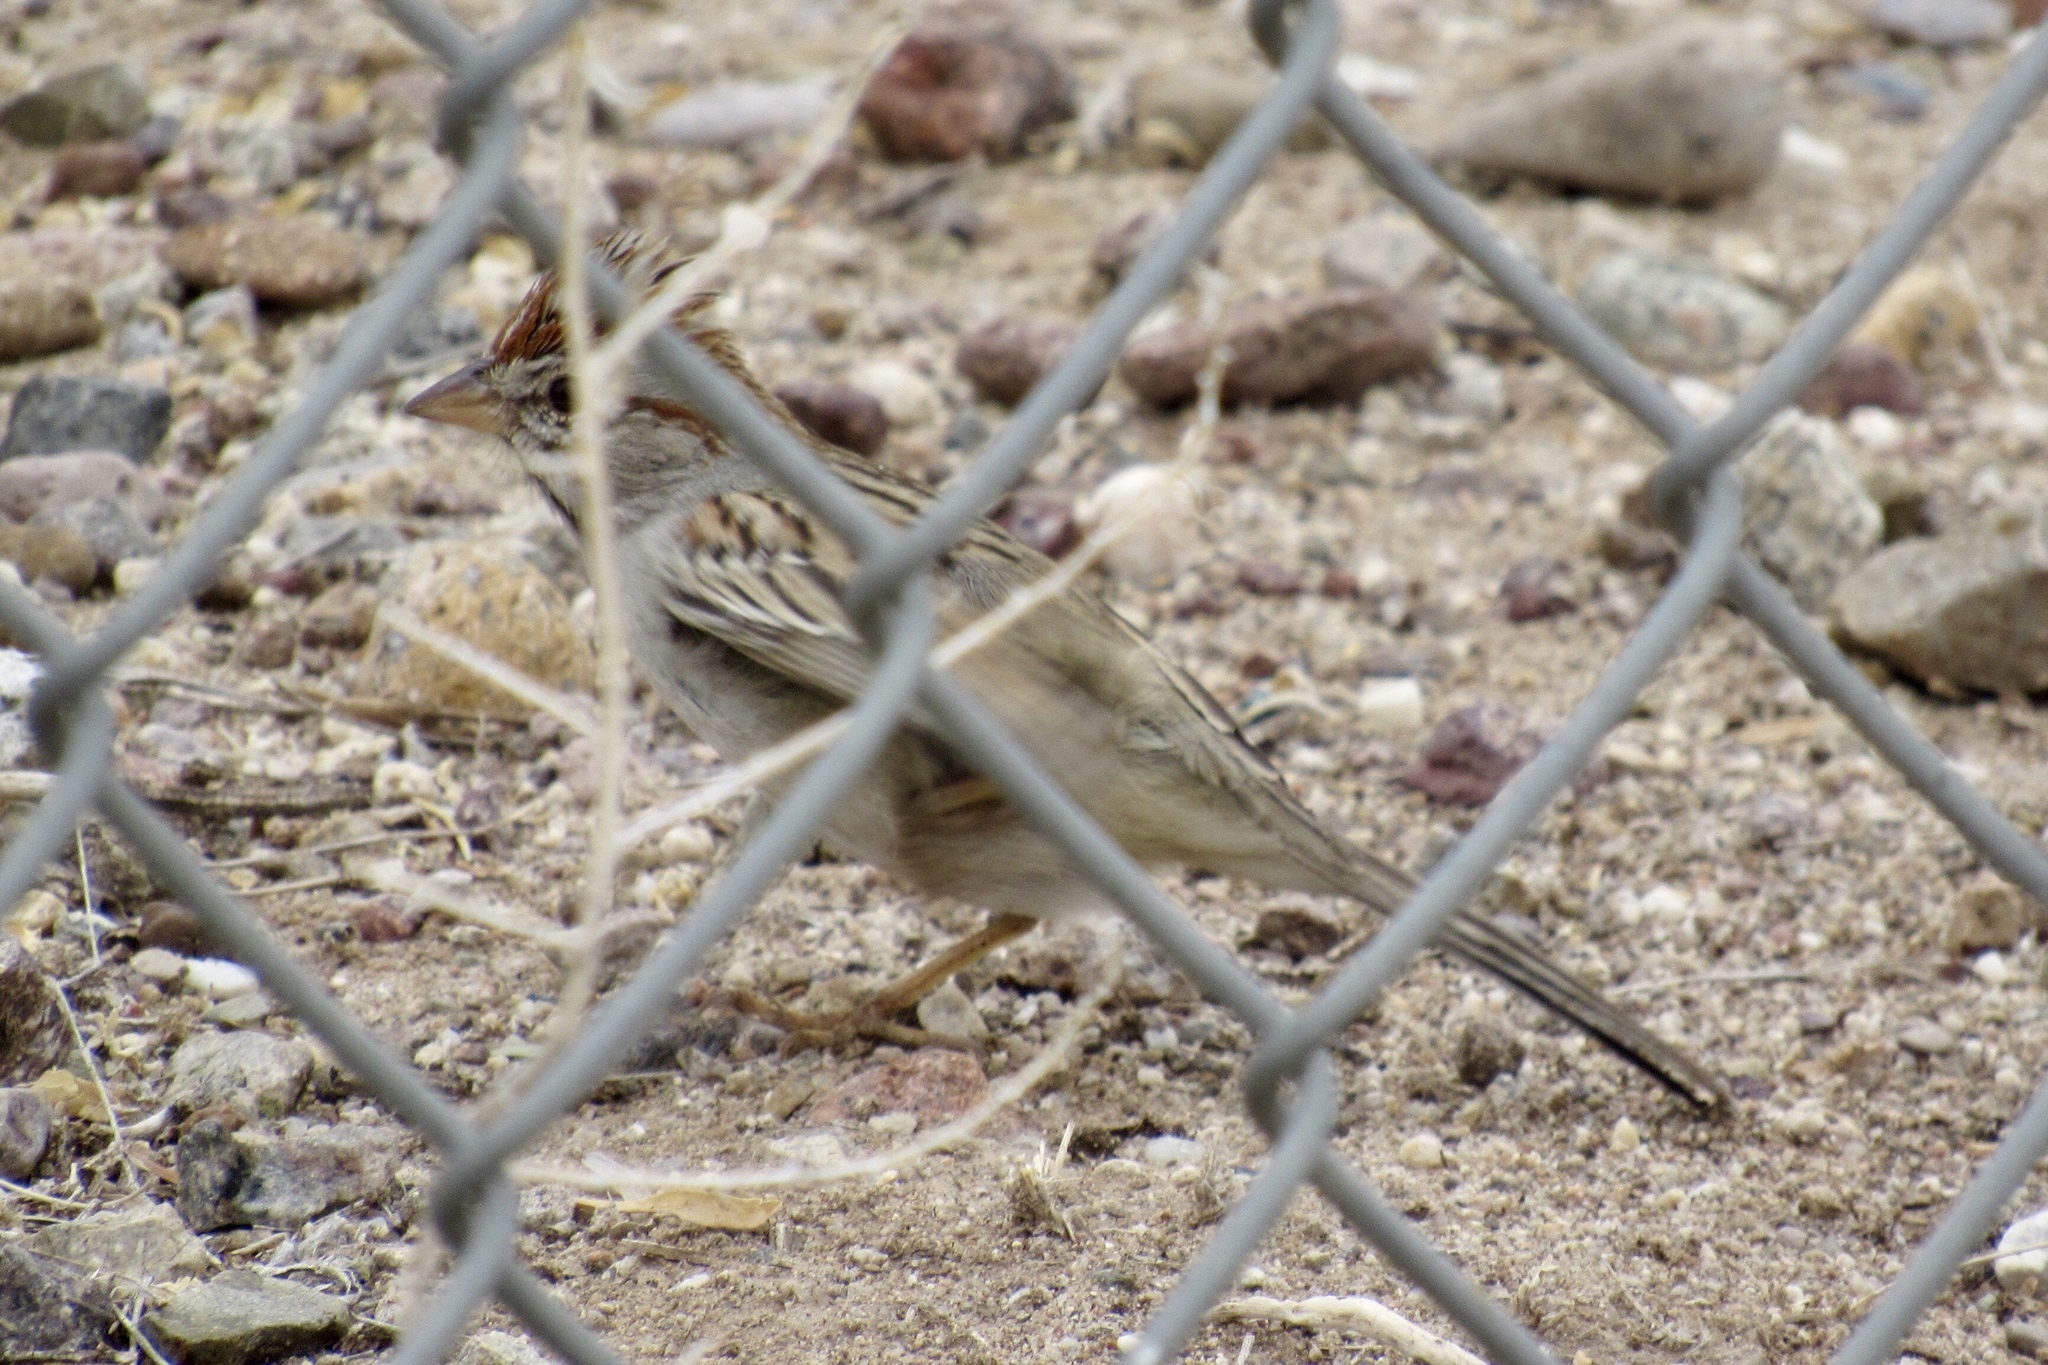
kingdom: Animalia
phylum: Chordata
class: Aves
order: Passeriformes
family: Passerellidae
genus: Peucaea
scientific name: Peucaea carpalis
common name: Rufous-winged sparrow
